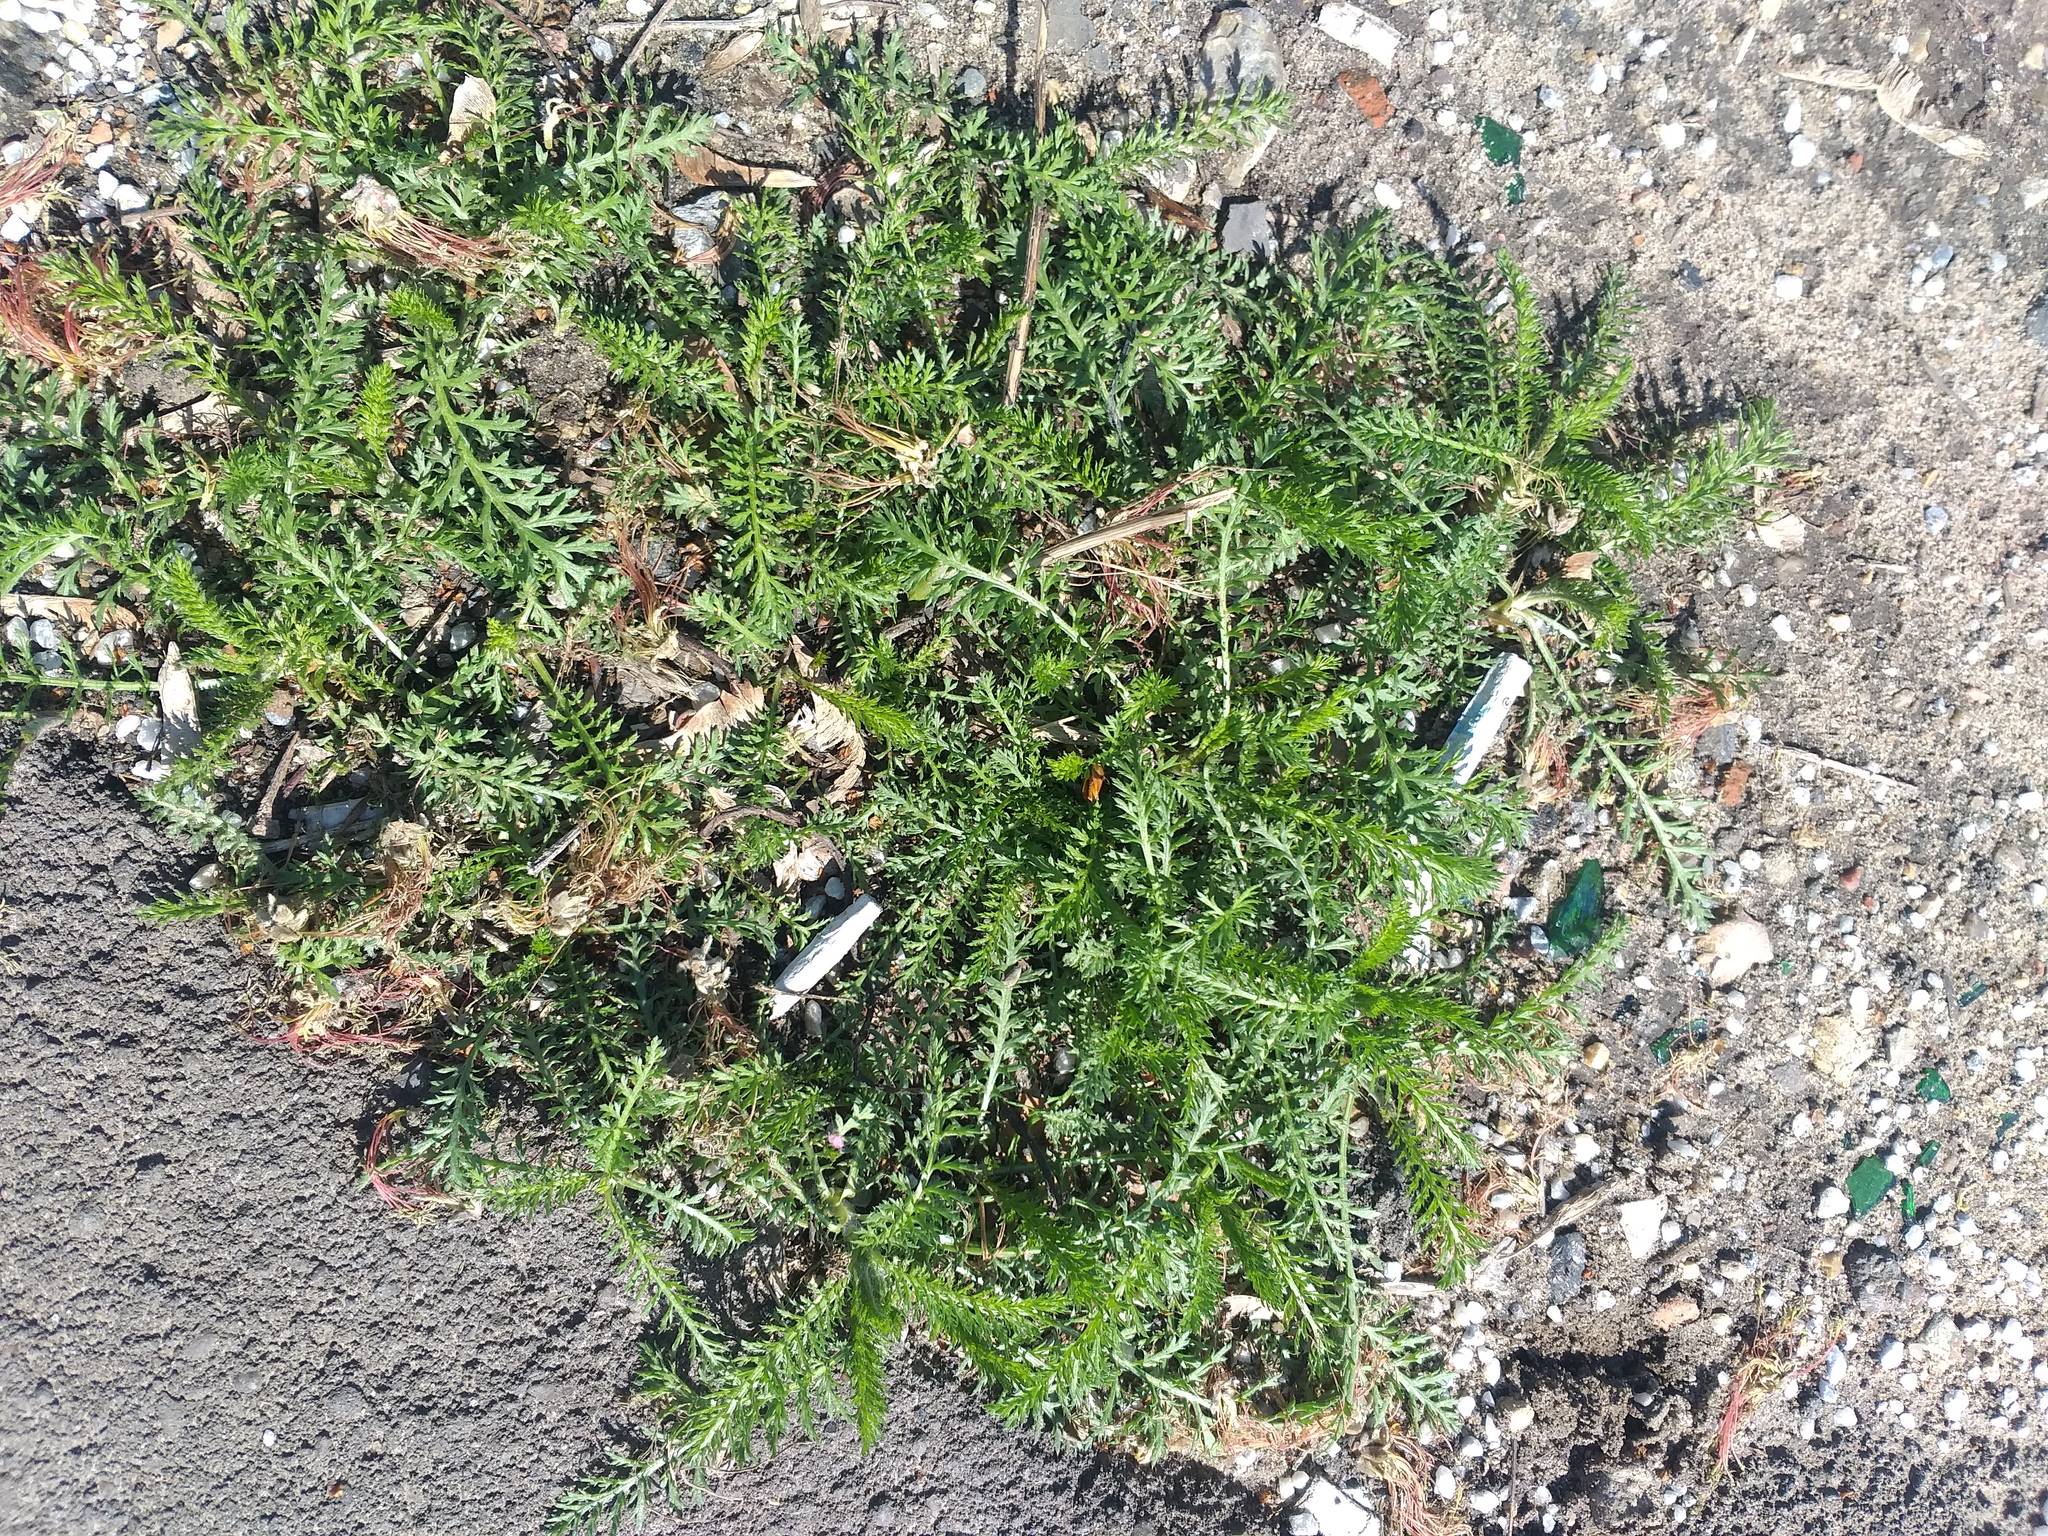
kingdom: Plantae
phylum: Tracheophyta
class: Magnoliopsida
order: Asterales
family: Asteraceae
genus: Achillea
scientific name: Achillea millefolium
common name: Yarrow
